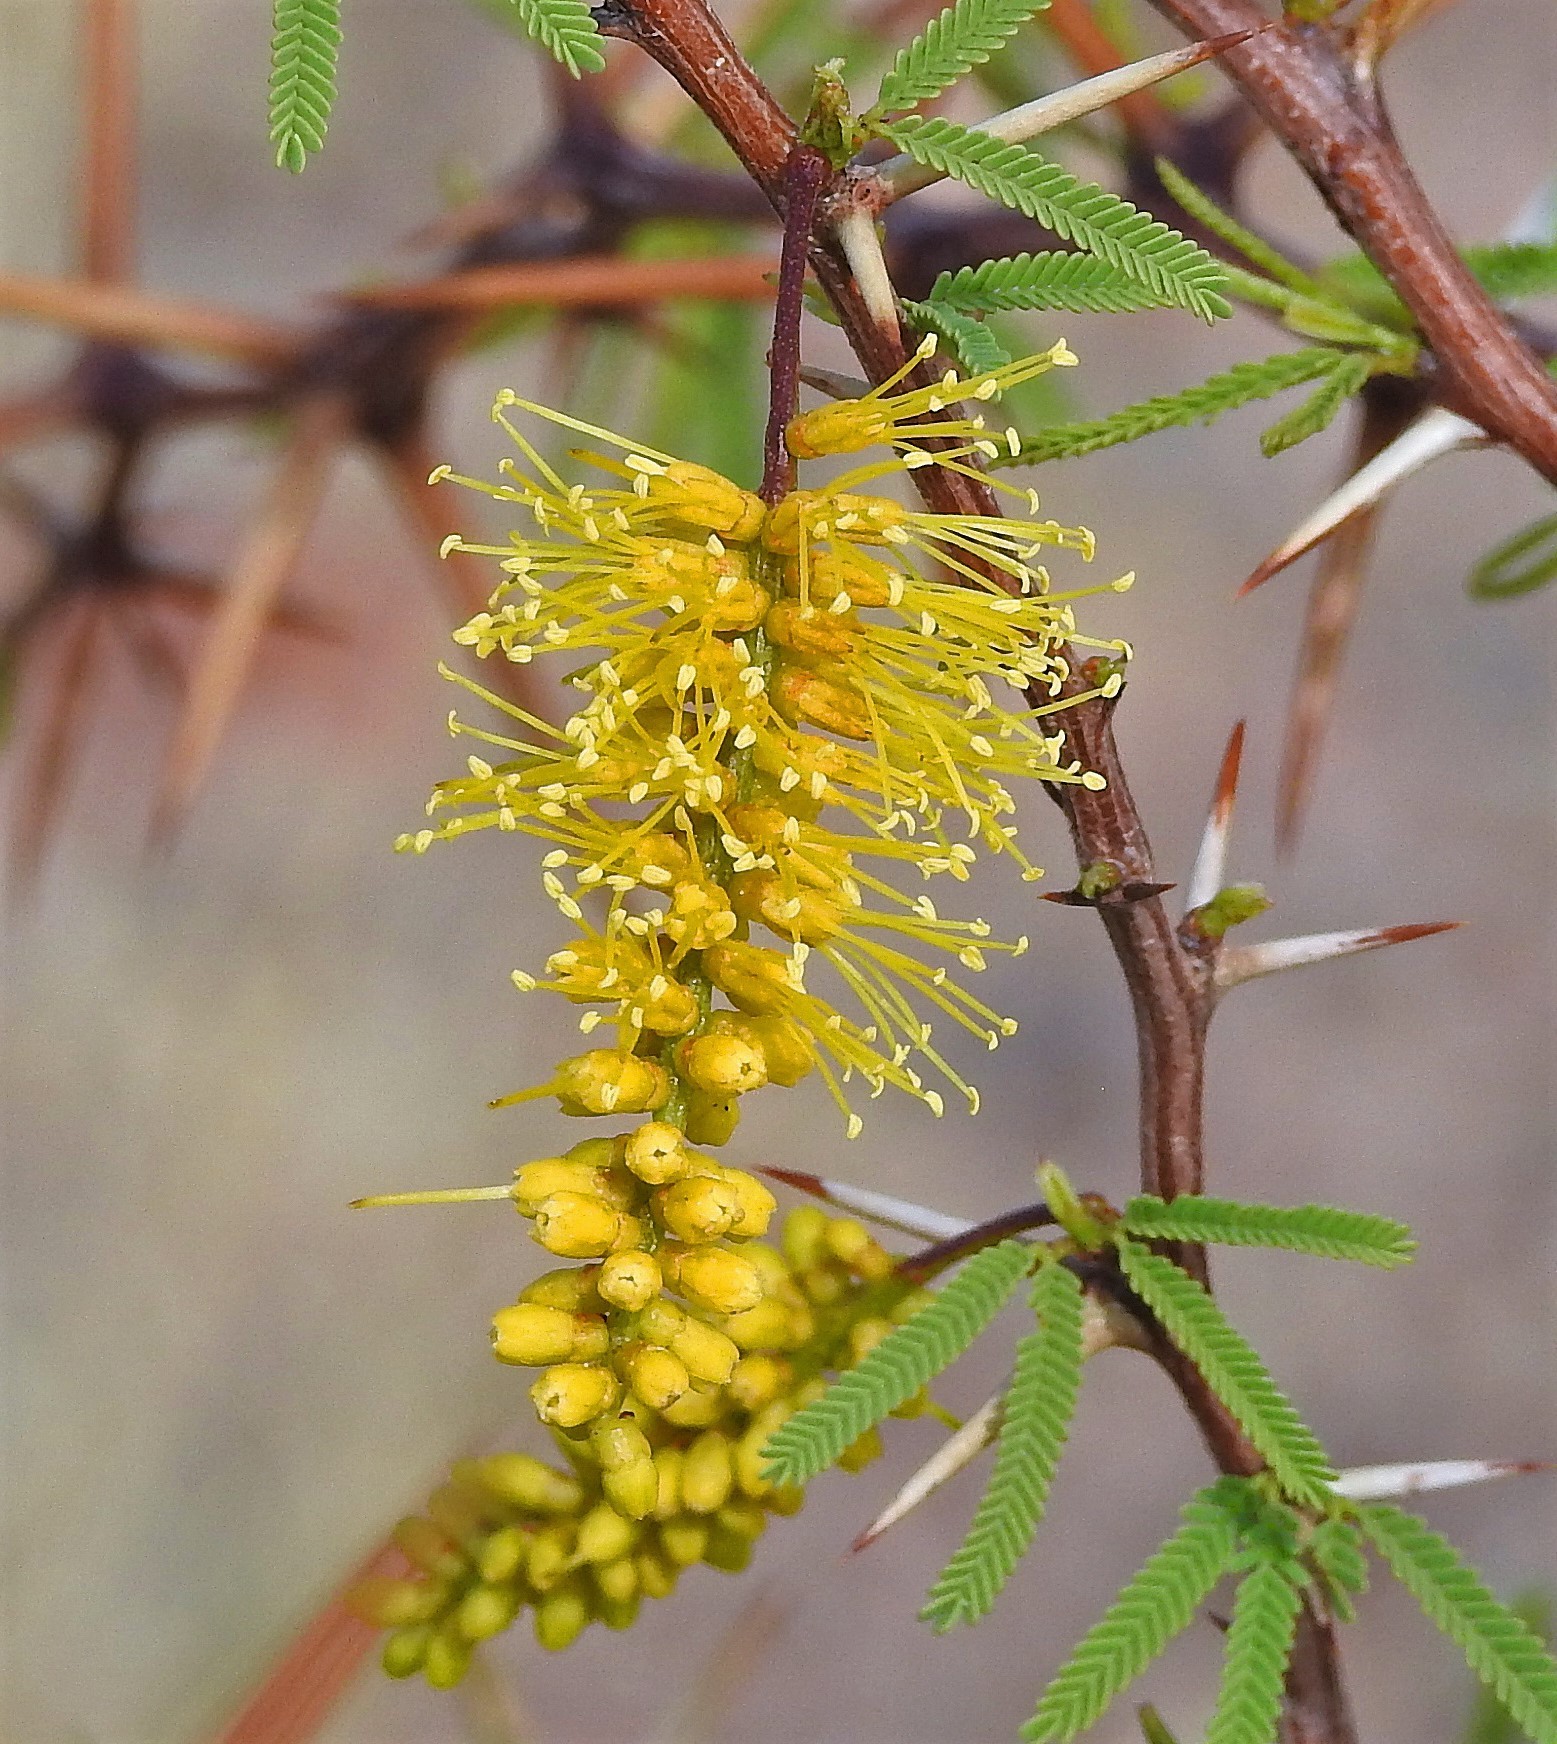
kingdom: Plantae
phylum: Tracheophyta
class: Magnoliopsida
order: Fabales
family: Fabaceae
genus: Prosopis
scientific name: Prosopis torquata
